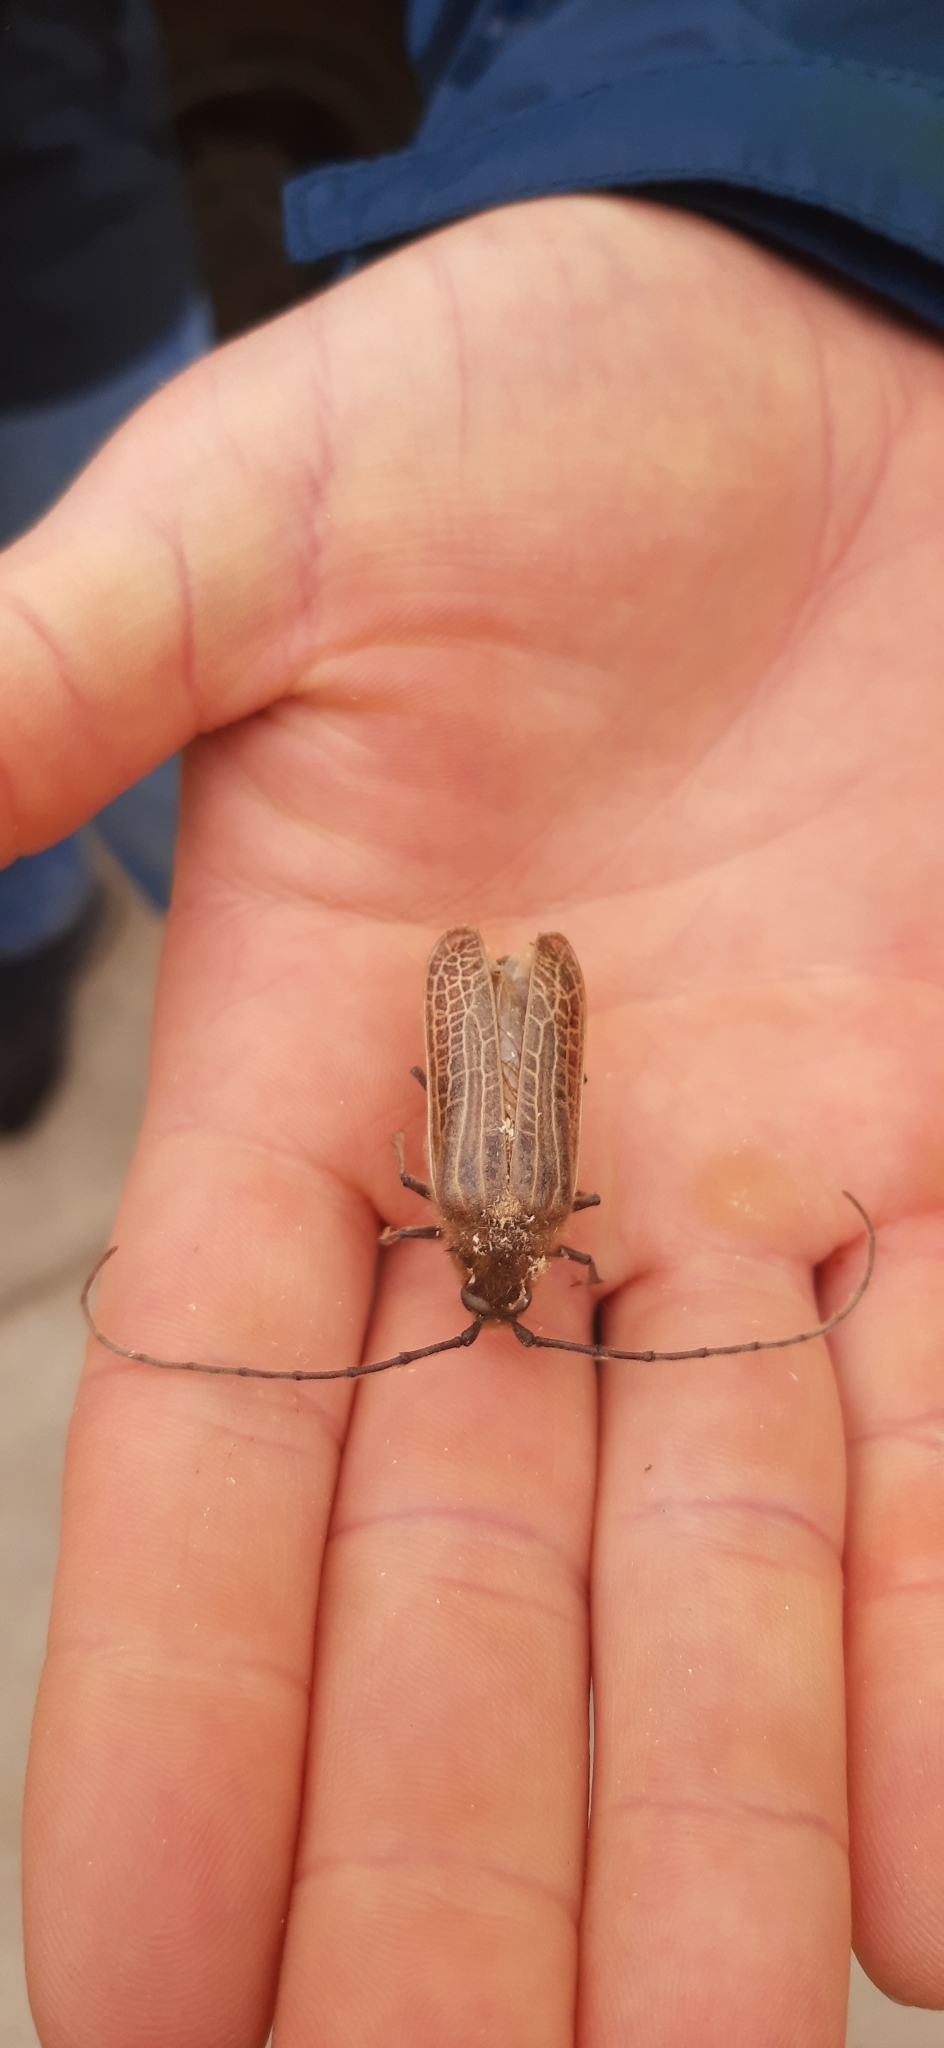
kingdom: Animalia
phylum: Arthropoda
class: Insecta
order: Coleoptera
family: Cerambycidae
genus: Prionoplus
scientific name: Prionoplus reticularis
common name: Huhu beetle
